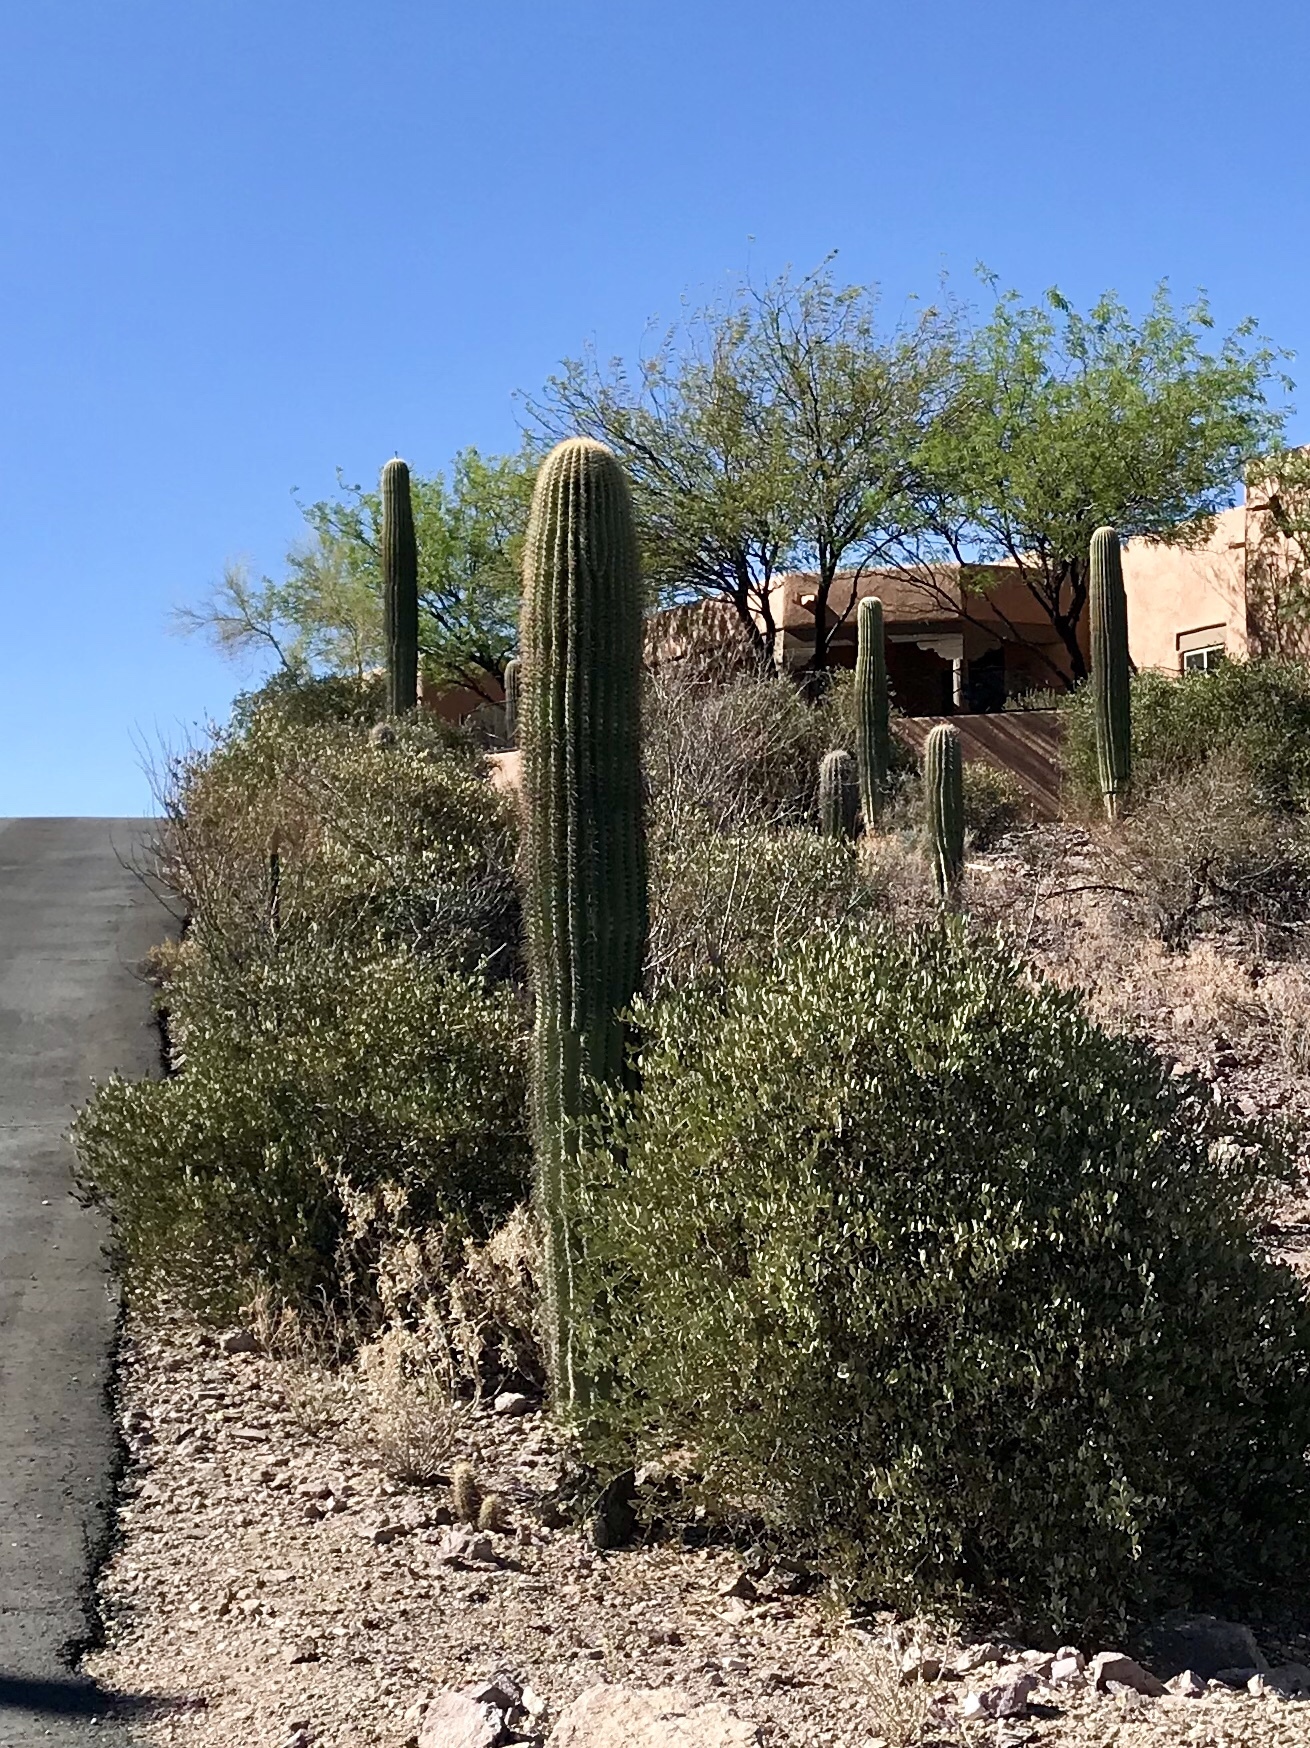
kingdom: Plantae
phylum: Tracheophyta
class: Magnoliopsida
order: Caryophyllales
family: Cactaceae
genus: Carnegiea
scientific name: Carnegiea gigantea
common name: Saguaro
